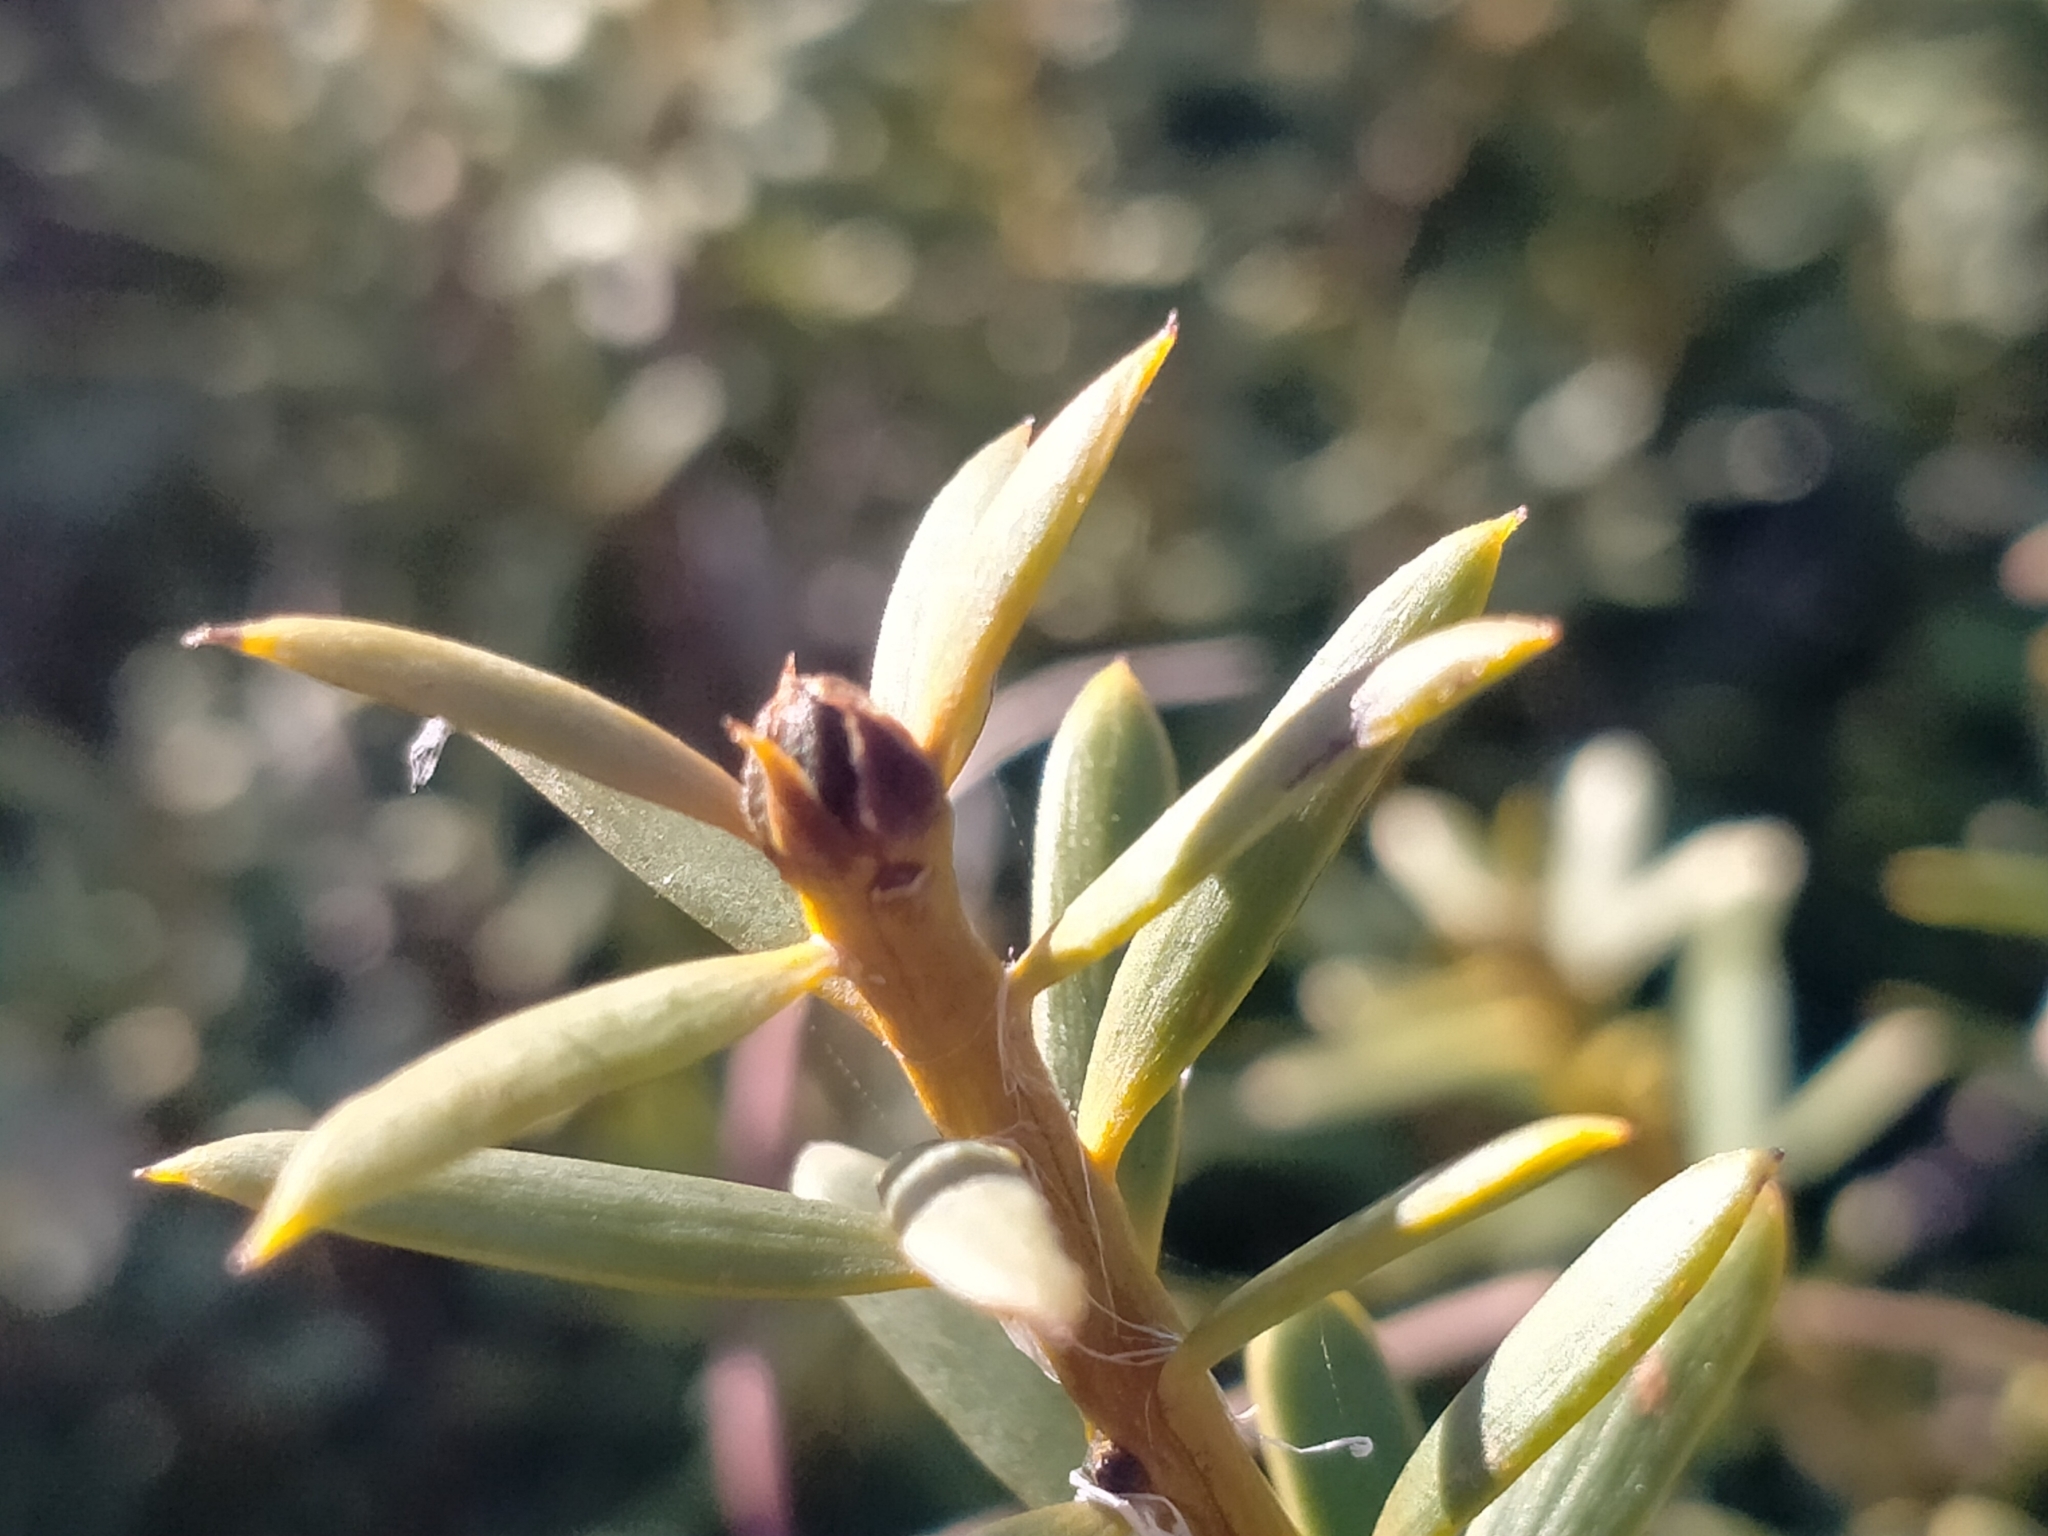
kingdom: Plantae
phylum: Tracheophyta
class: Pinopsida
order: Pinales
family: Podocarpaceae
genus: Podocarpus
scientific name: Podocarpus laetus
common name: Hall's totara
